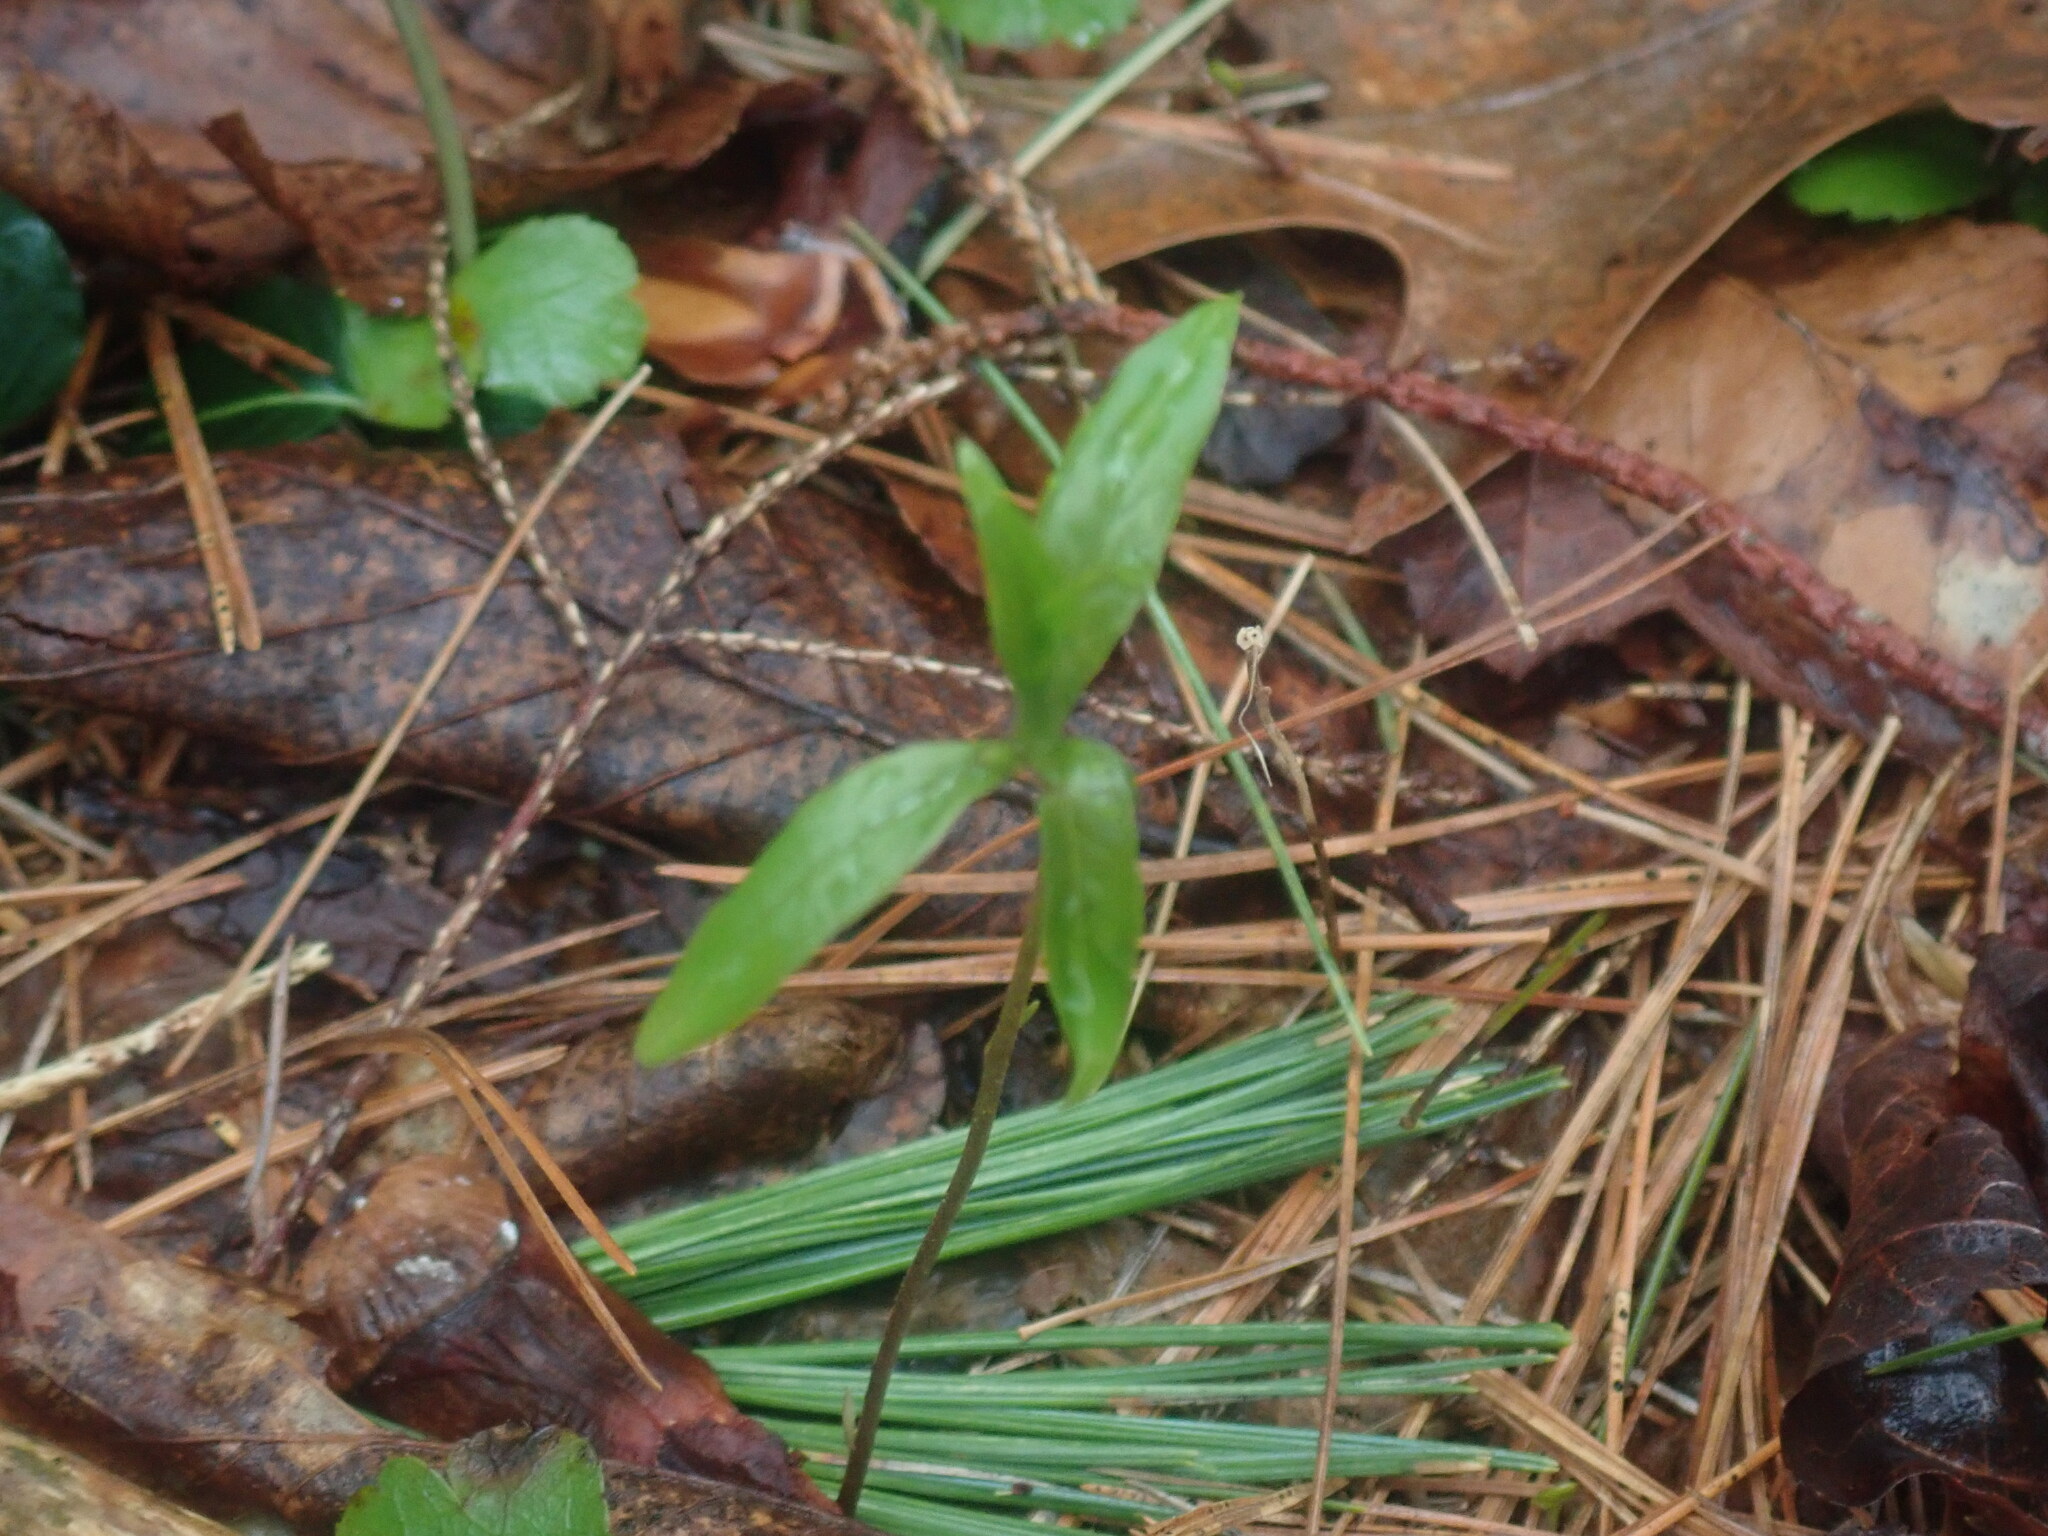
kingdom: Plantae
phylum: Tracheophyta
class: Magnoliopsida
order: Ericales
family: Primulaceae
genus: Lysimachia
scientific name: Lysimachia borealis
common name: American starflower
